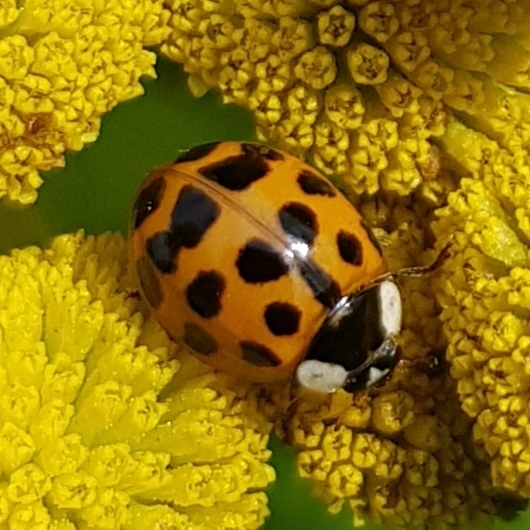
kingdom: Animalia
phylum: Arthropoda
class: Insecta
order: Coleoptera
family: Coccinellidae
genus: Harmonia
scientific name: Harmonia axyridis
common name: Harlequin ladybird
